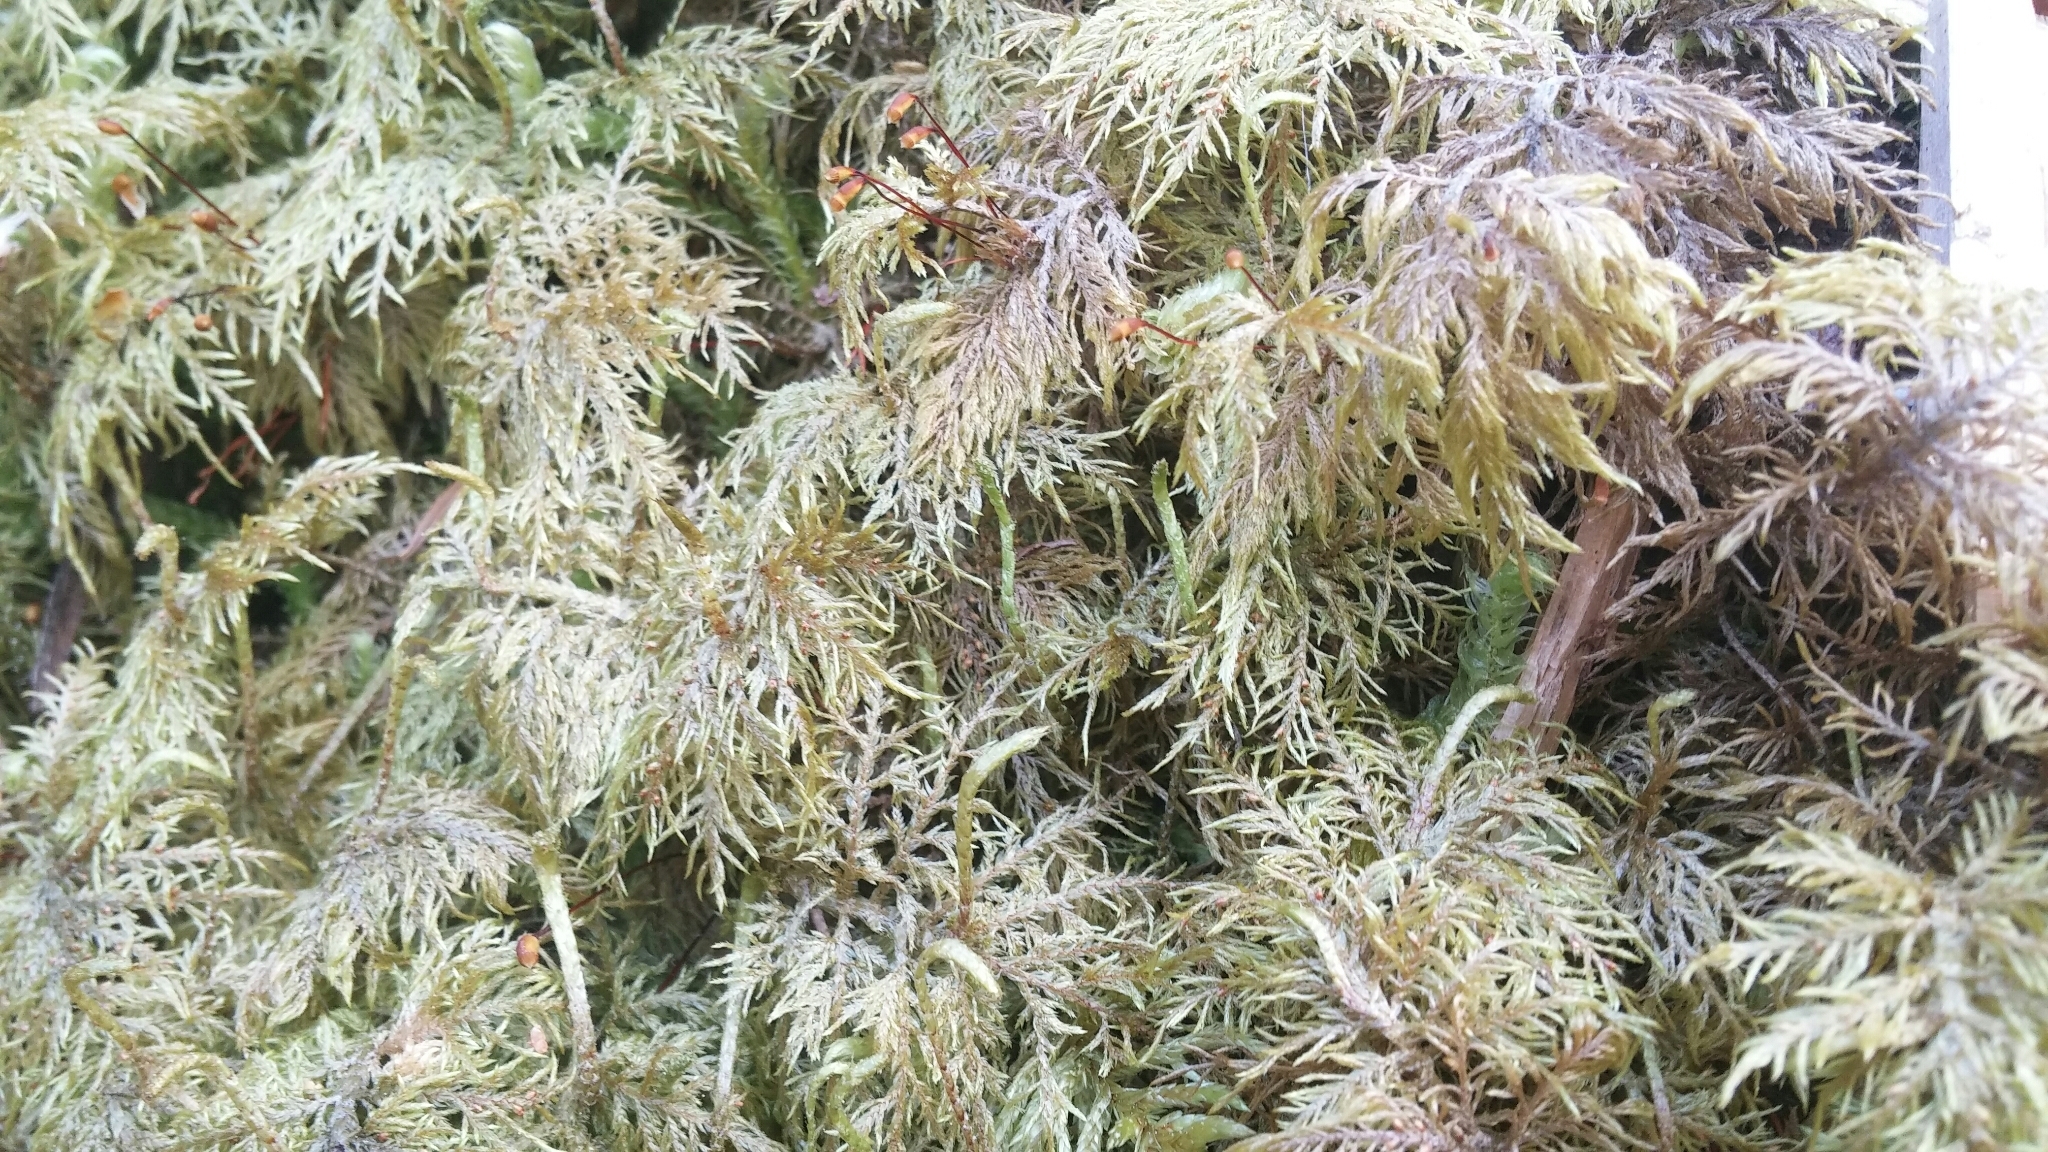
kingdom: Plantae
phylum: Bryophyta
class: Bryopsida
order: Hypnales
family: Hylocomiaceae
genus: Hylocomium
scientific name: Hylocomium splendens
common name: Stairstep moss
